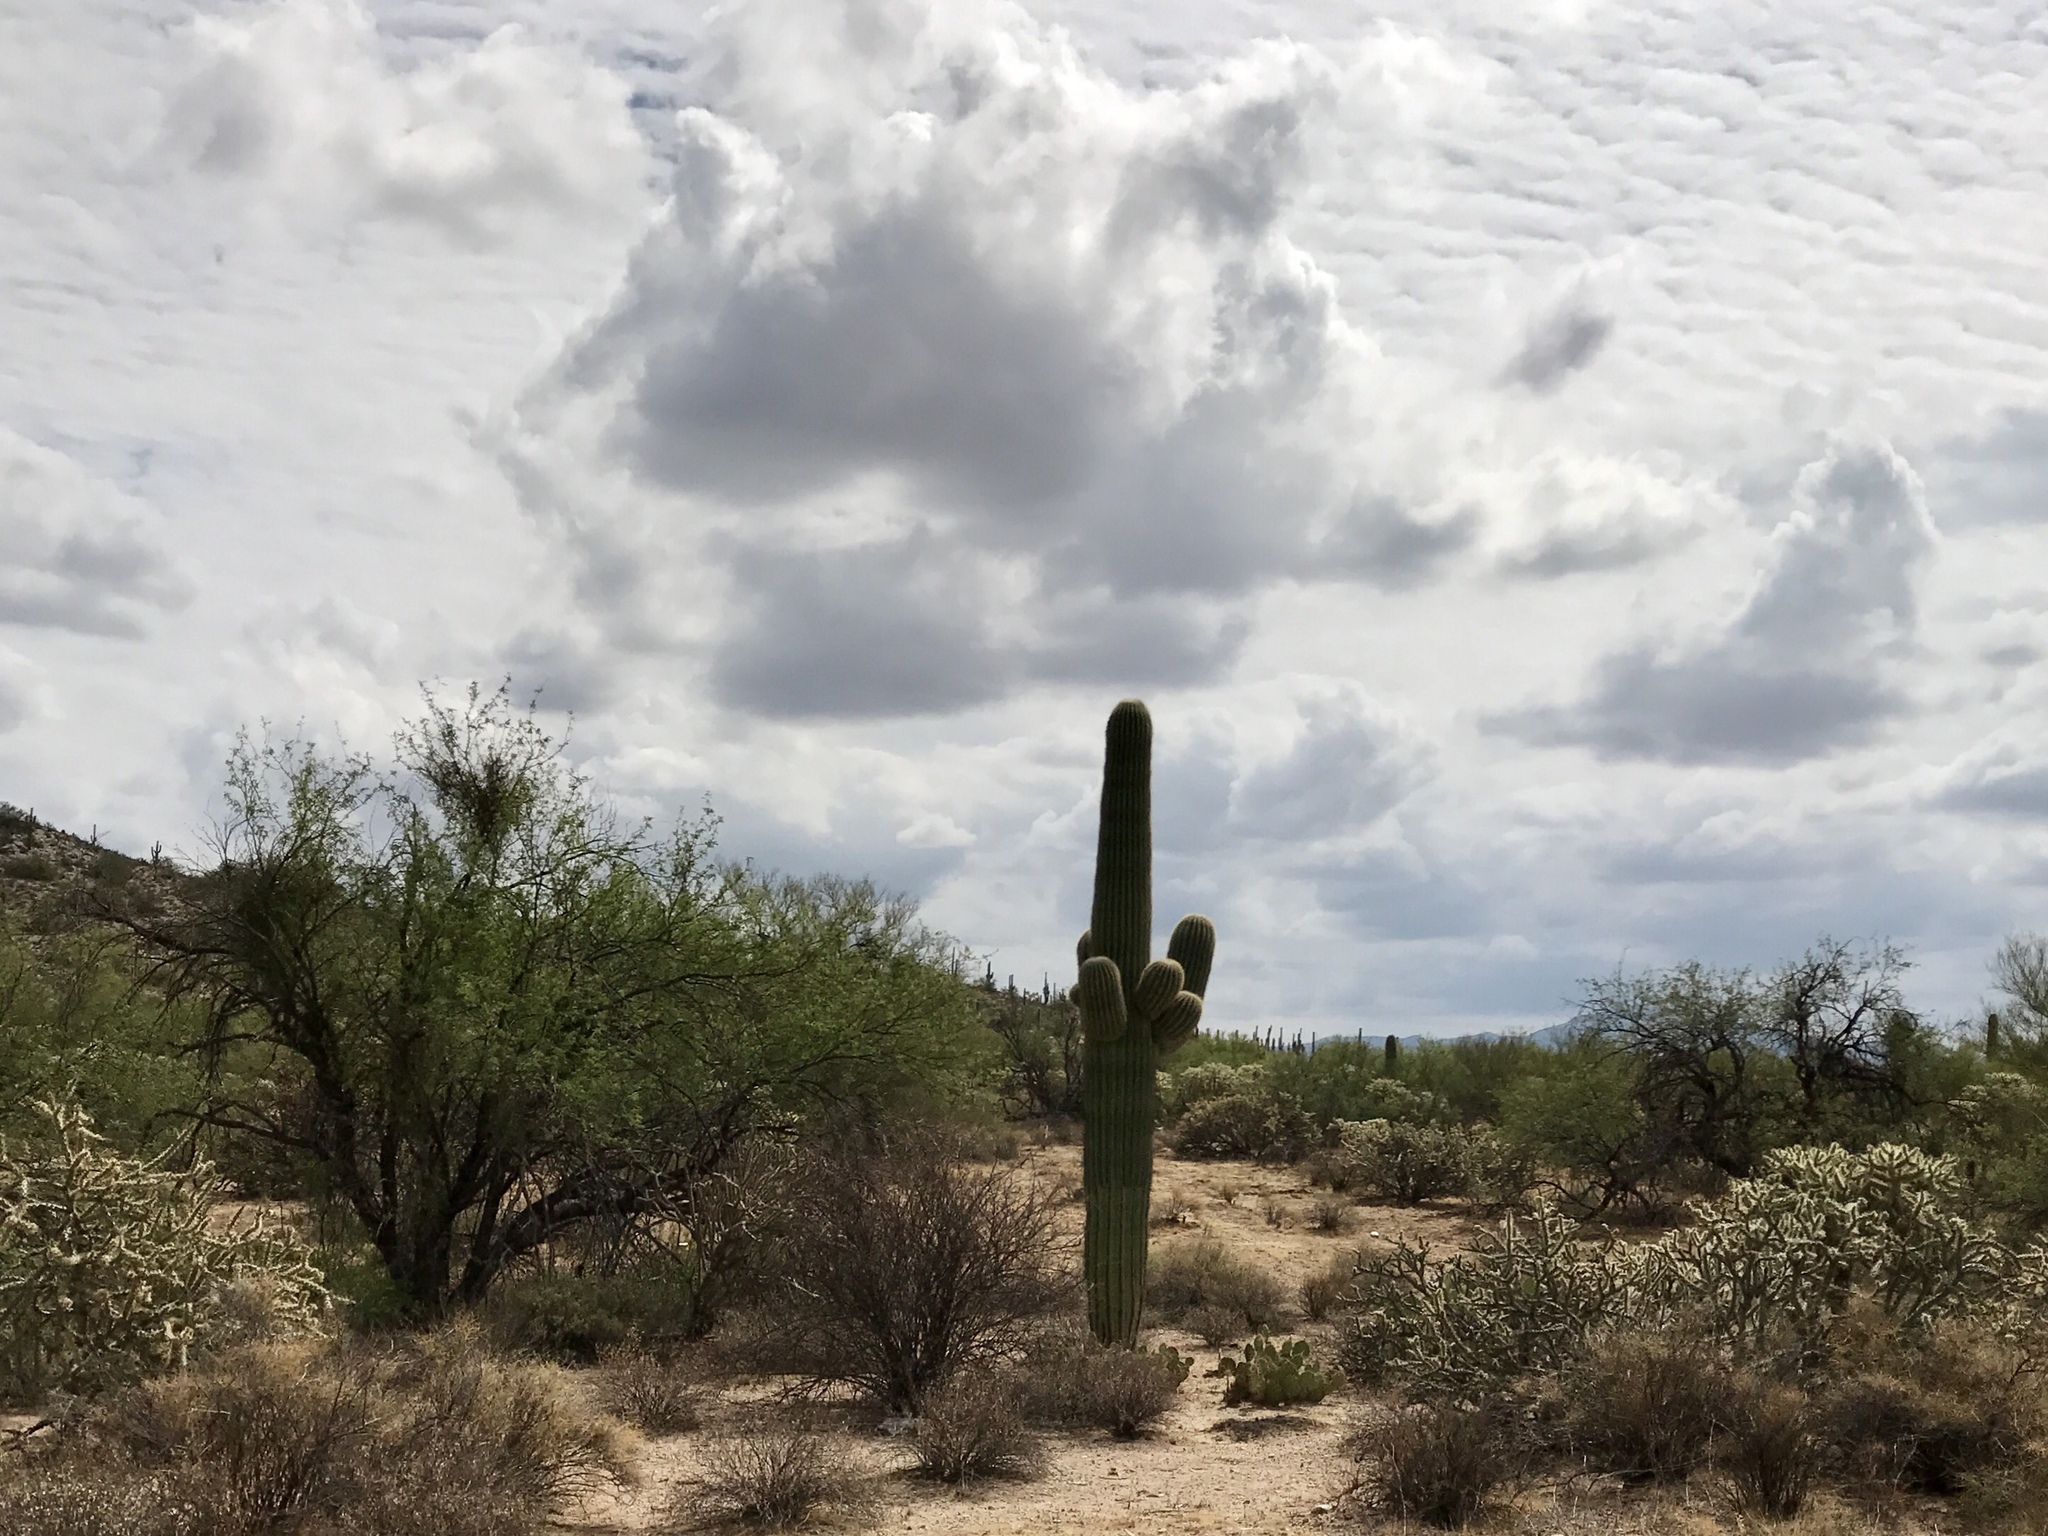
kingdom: Plantae
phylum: Tracheophyta
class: Magnoliopsida
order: Caryophyllales
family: Cactaceae
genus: Carnegiea
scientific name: Carnegiea gigantea
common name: Saguaro
